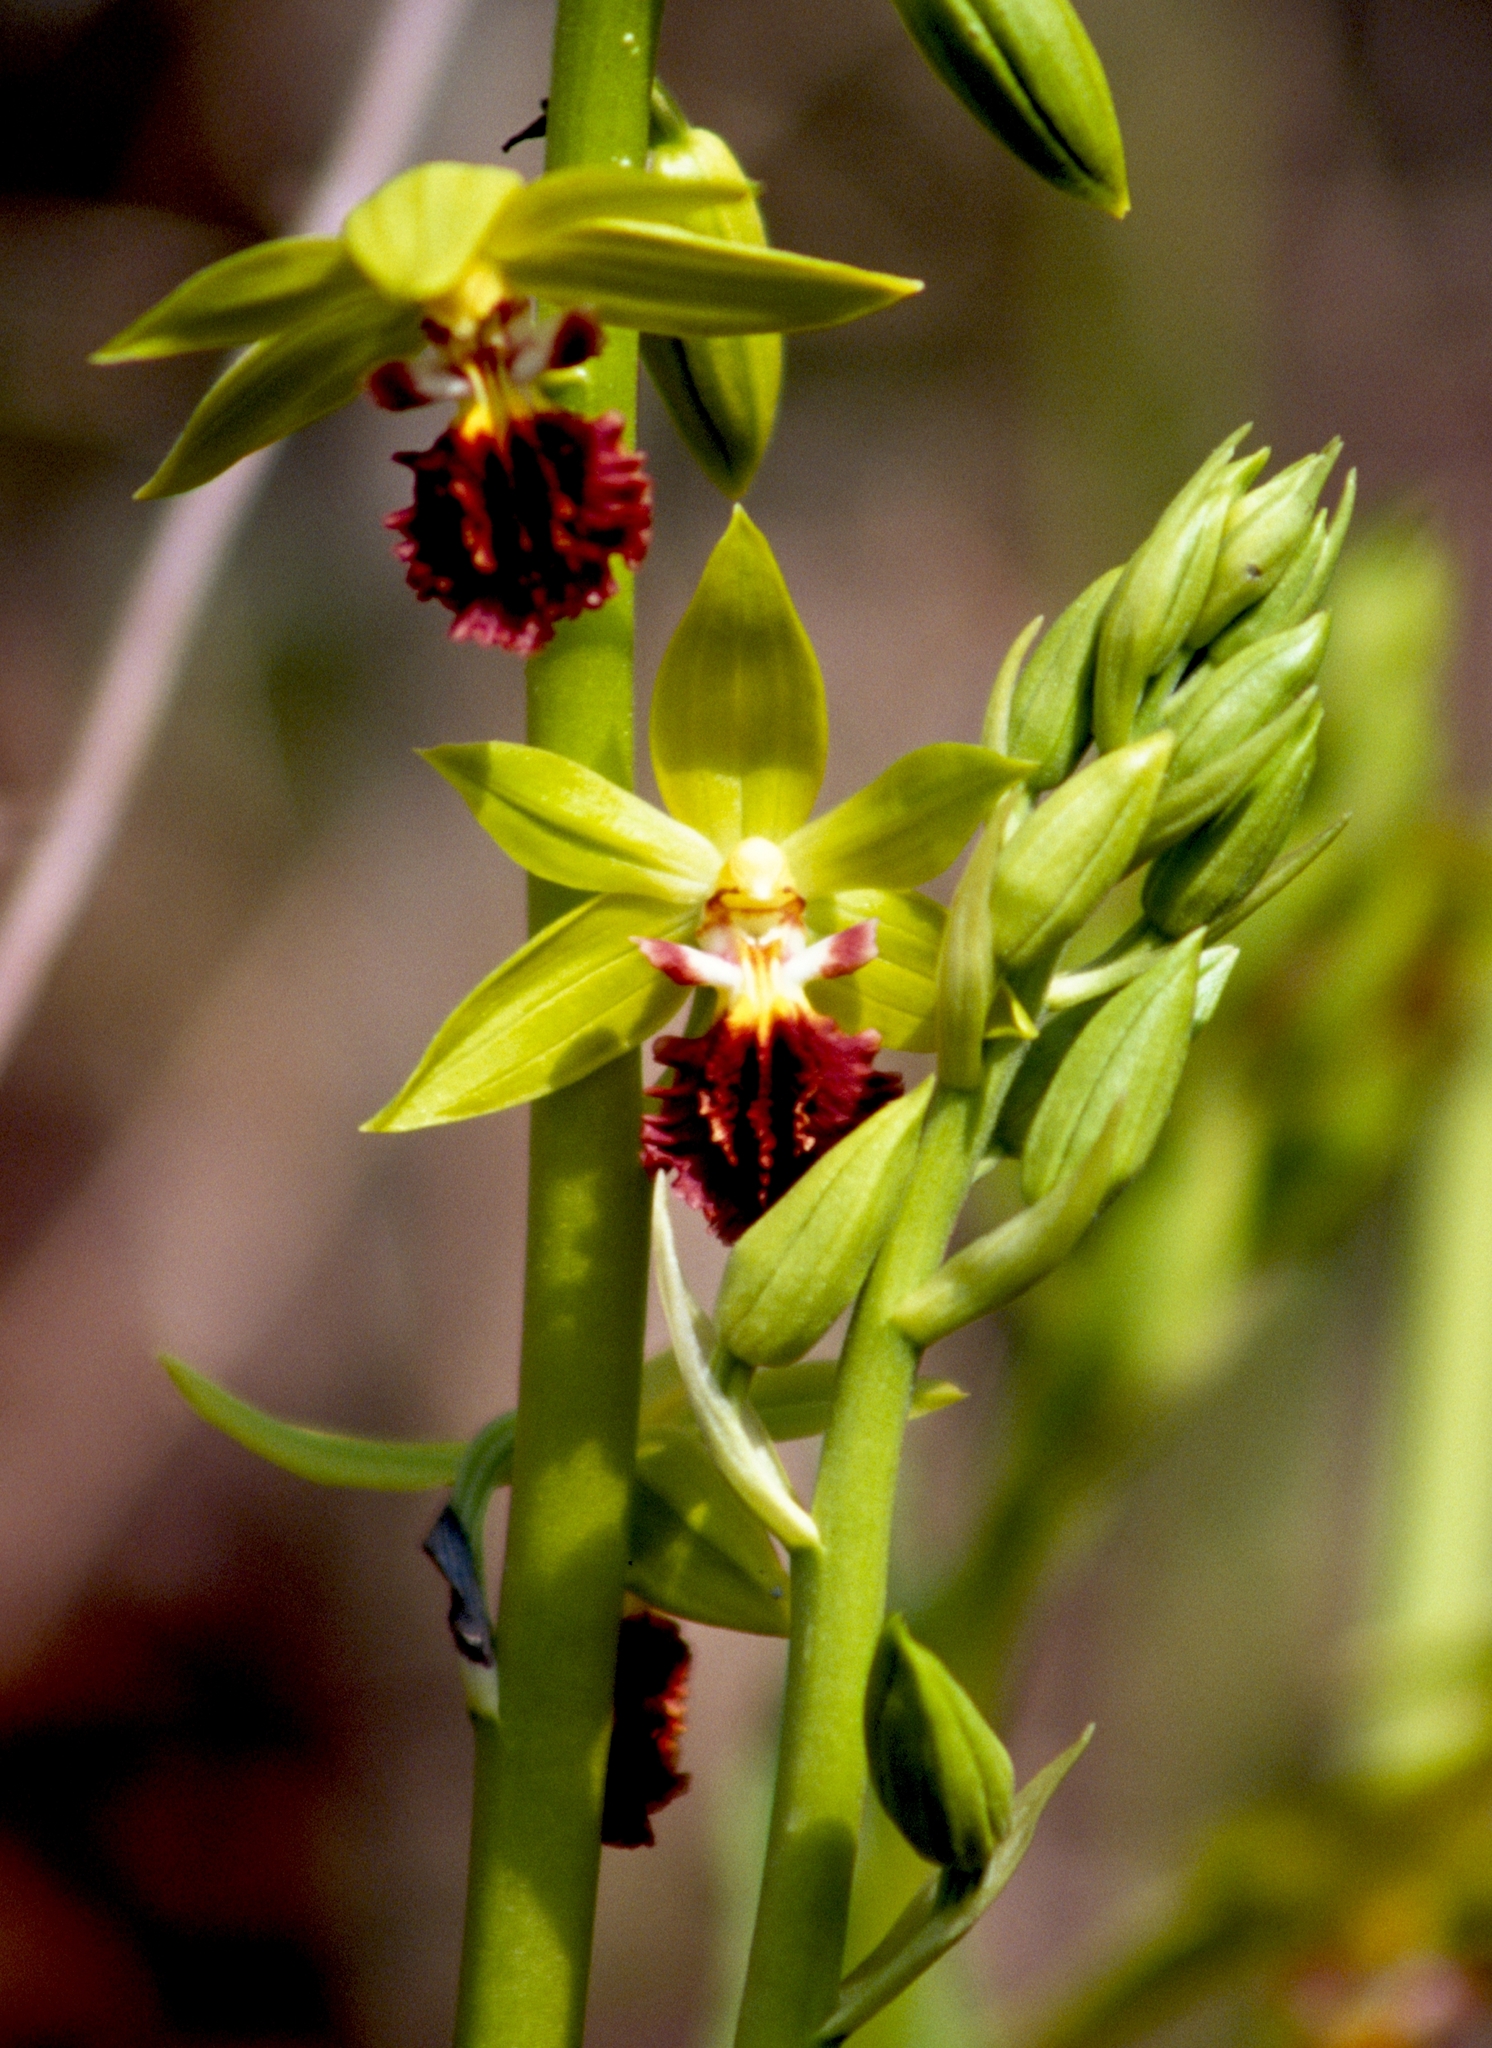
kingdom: Plantae
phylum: Tracheophyta
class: Liliopsida
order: Asparagales
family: Orchidaceae
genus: Calanthe
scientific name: Calanthe tricarinata
